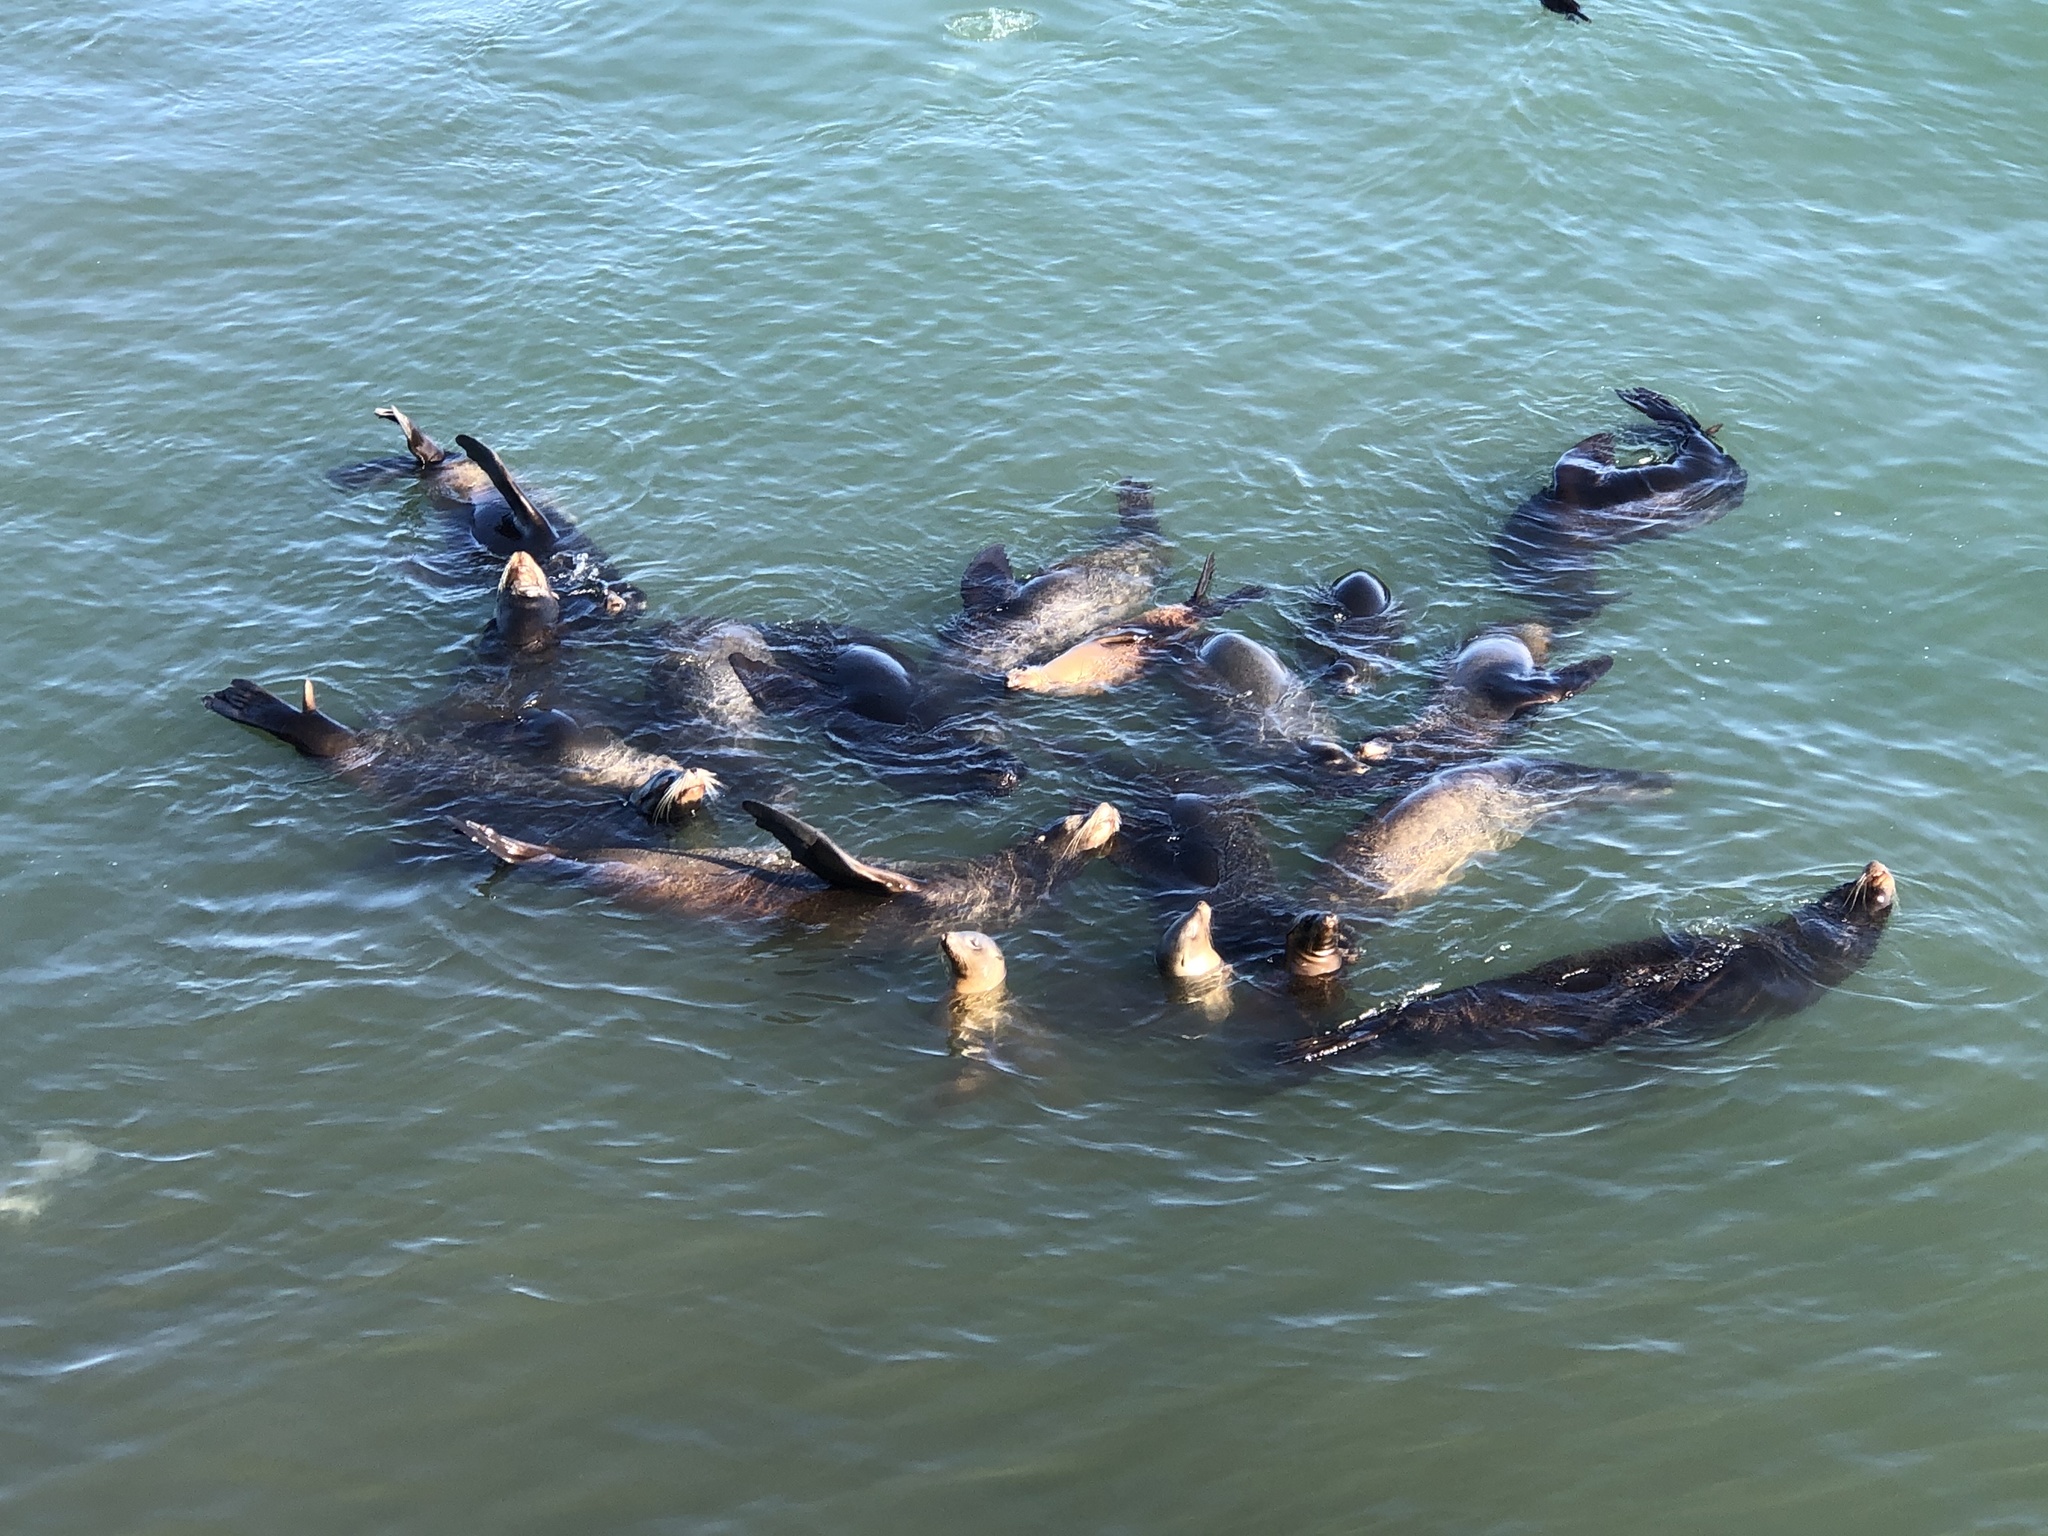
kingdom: Animalia
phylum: Chordata
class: Mammalia
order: Carnivora
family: Otariidae
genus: Zalophus
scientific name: Zalophus californianus
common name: California sea lion
